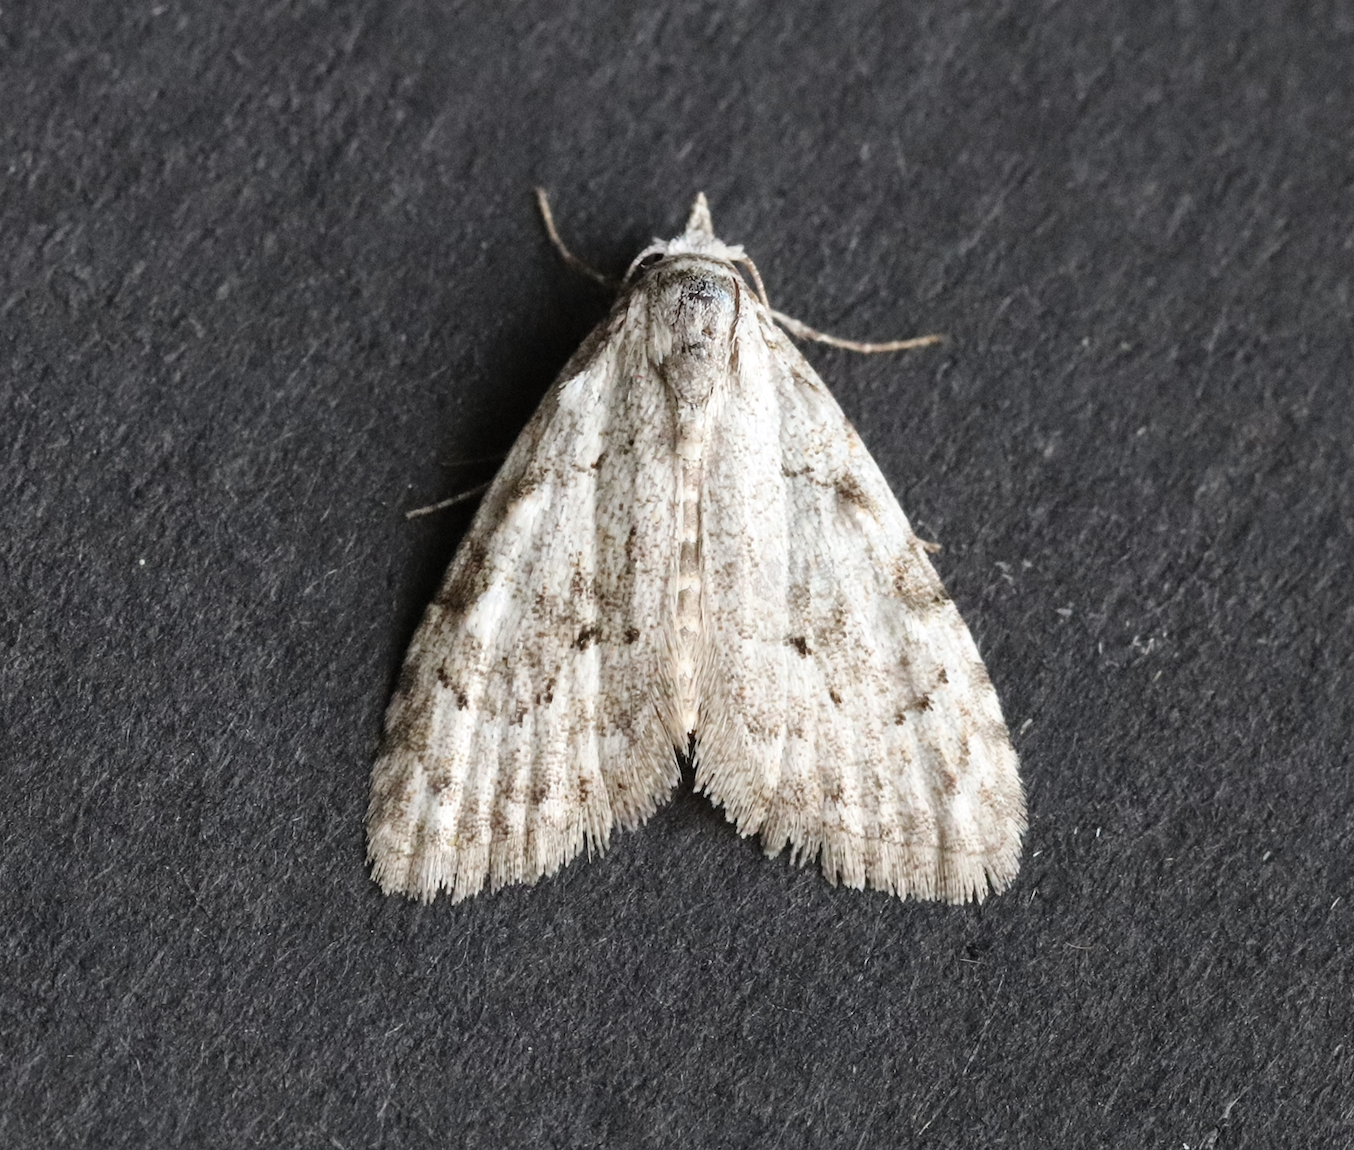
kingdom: Animalia
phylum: Arthropoda
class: Insecta
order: Lepidoptera
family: Nolidae
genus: Nola
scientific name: Nola confusalis
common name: Least black arches
